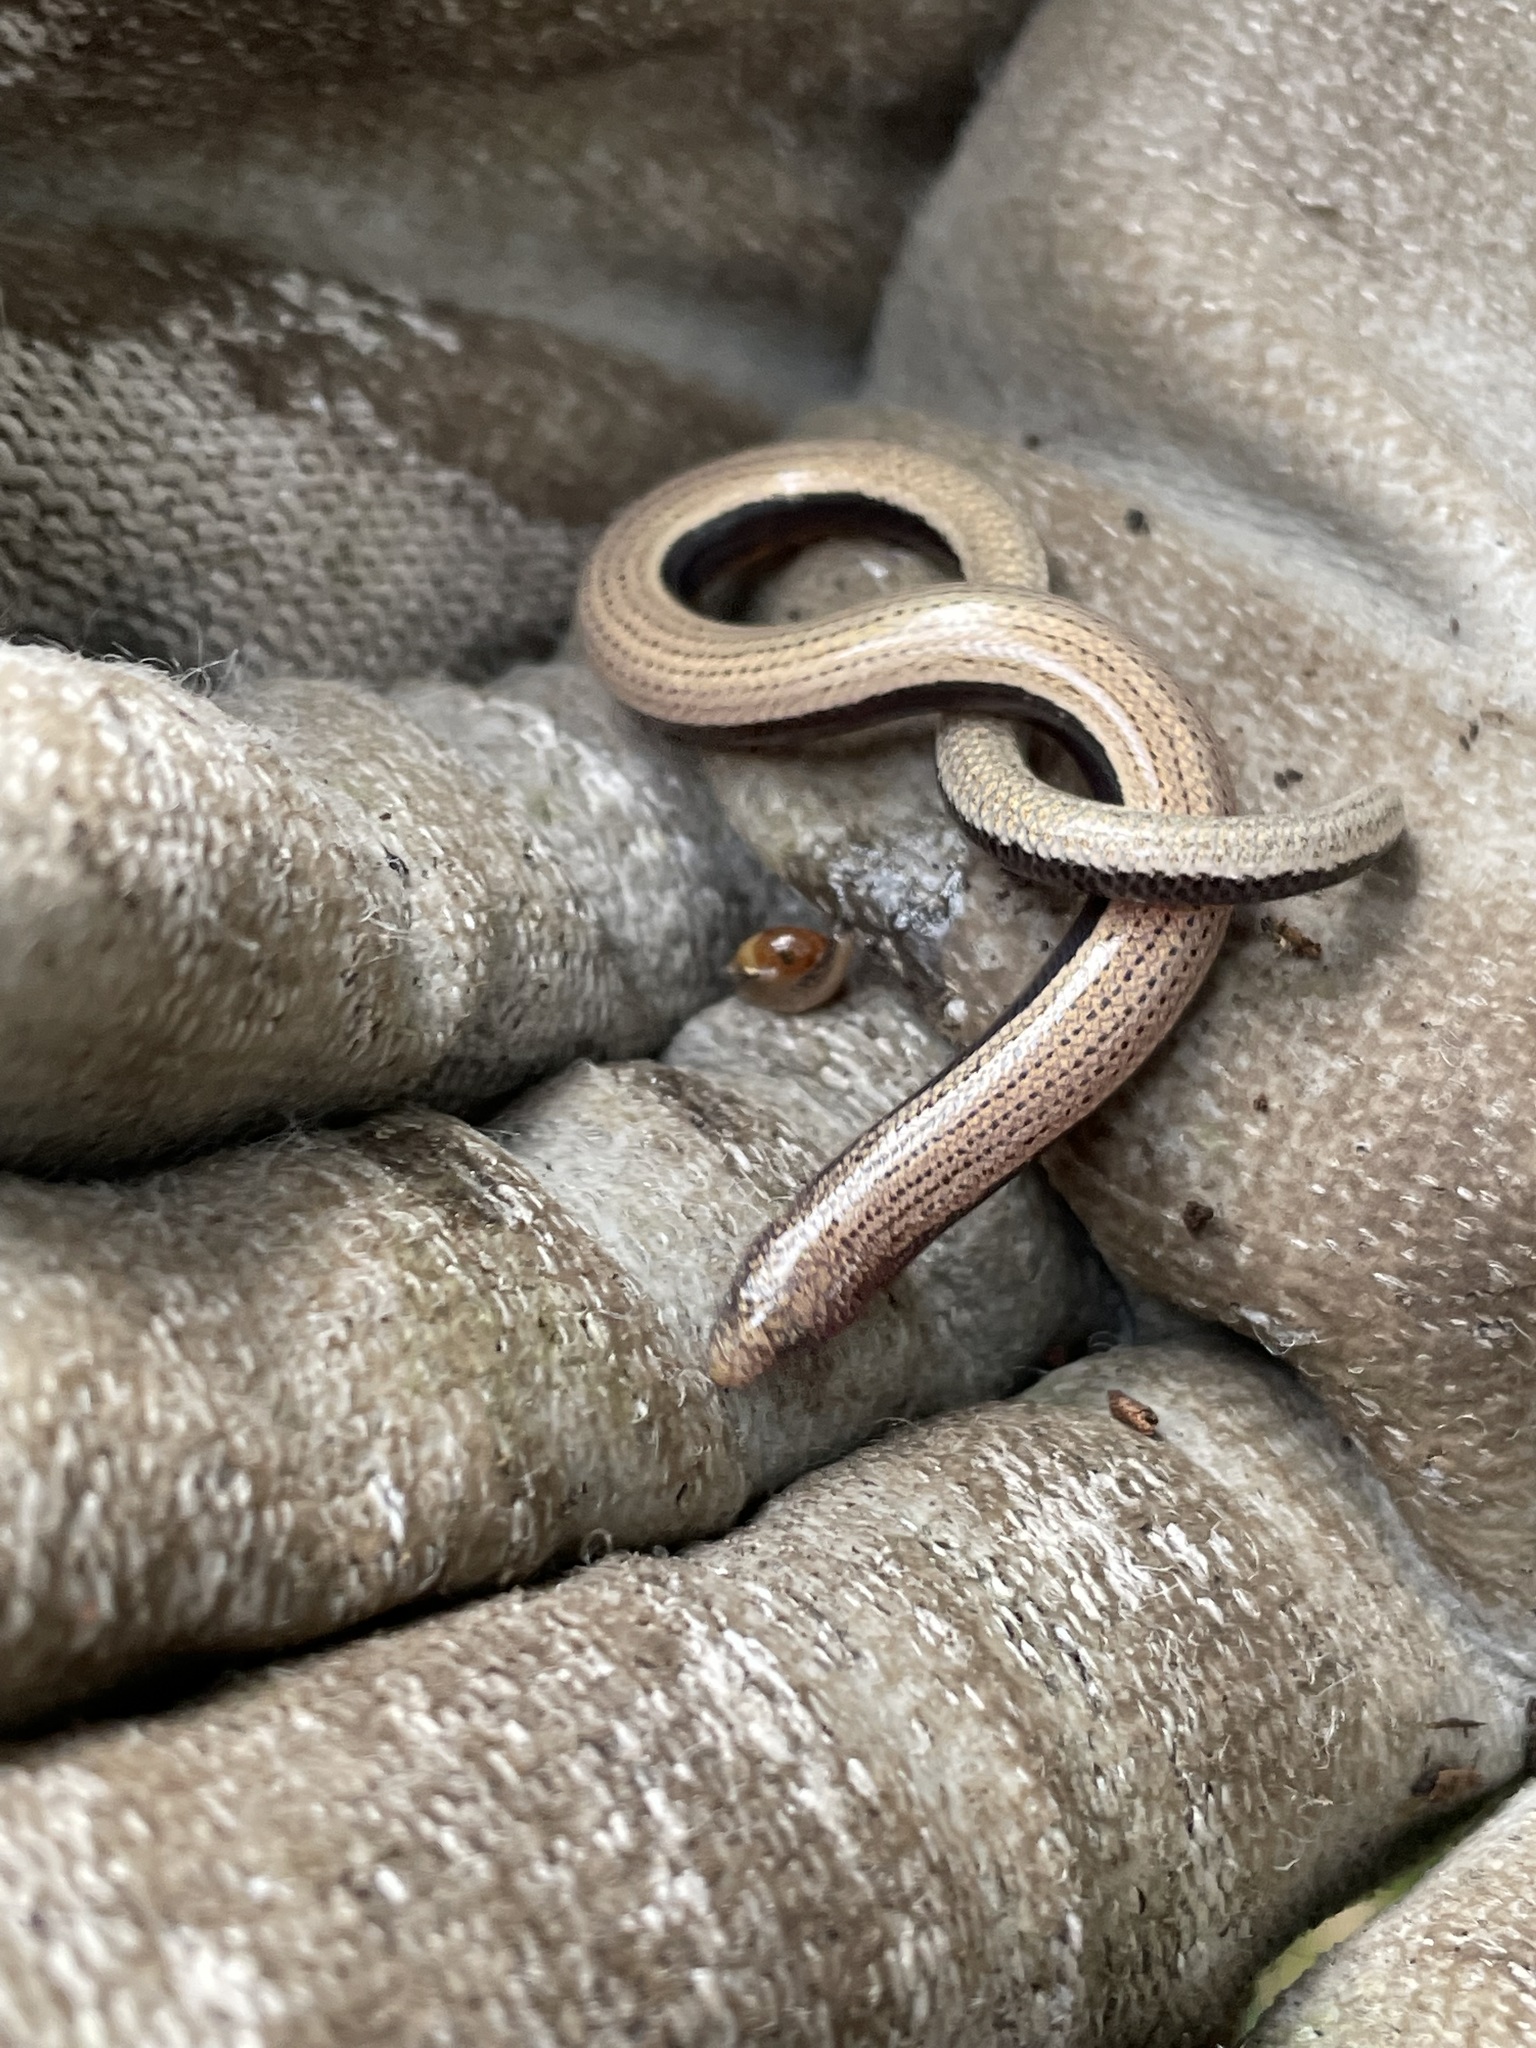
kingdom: Animalia
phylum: Chordata
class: Squamata
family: Scincidae
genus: Ophioscincus
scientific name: Ophioscincus ophioscincus
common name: Yolk-bellied snake-skink
